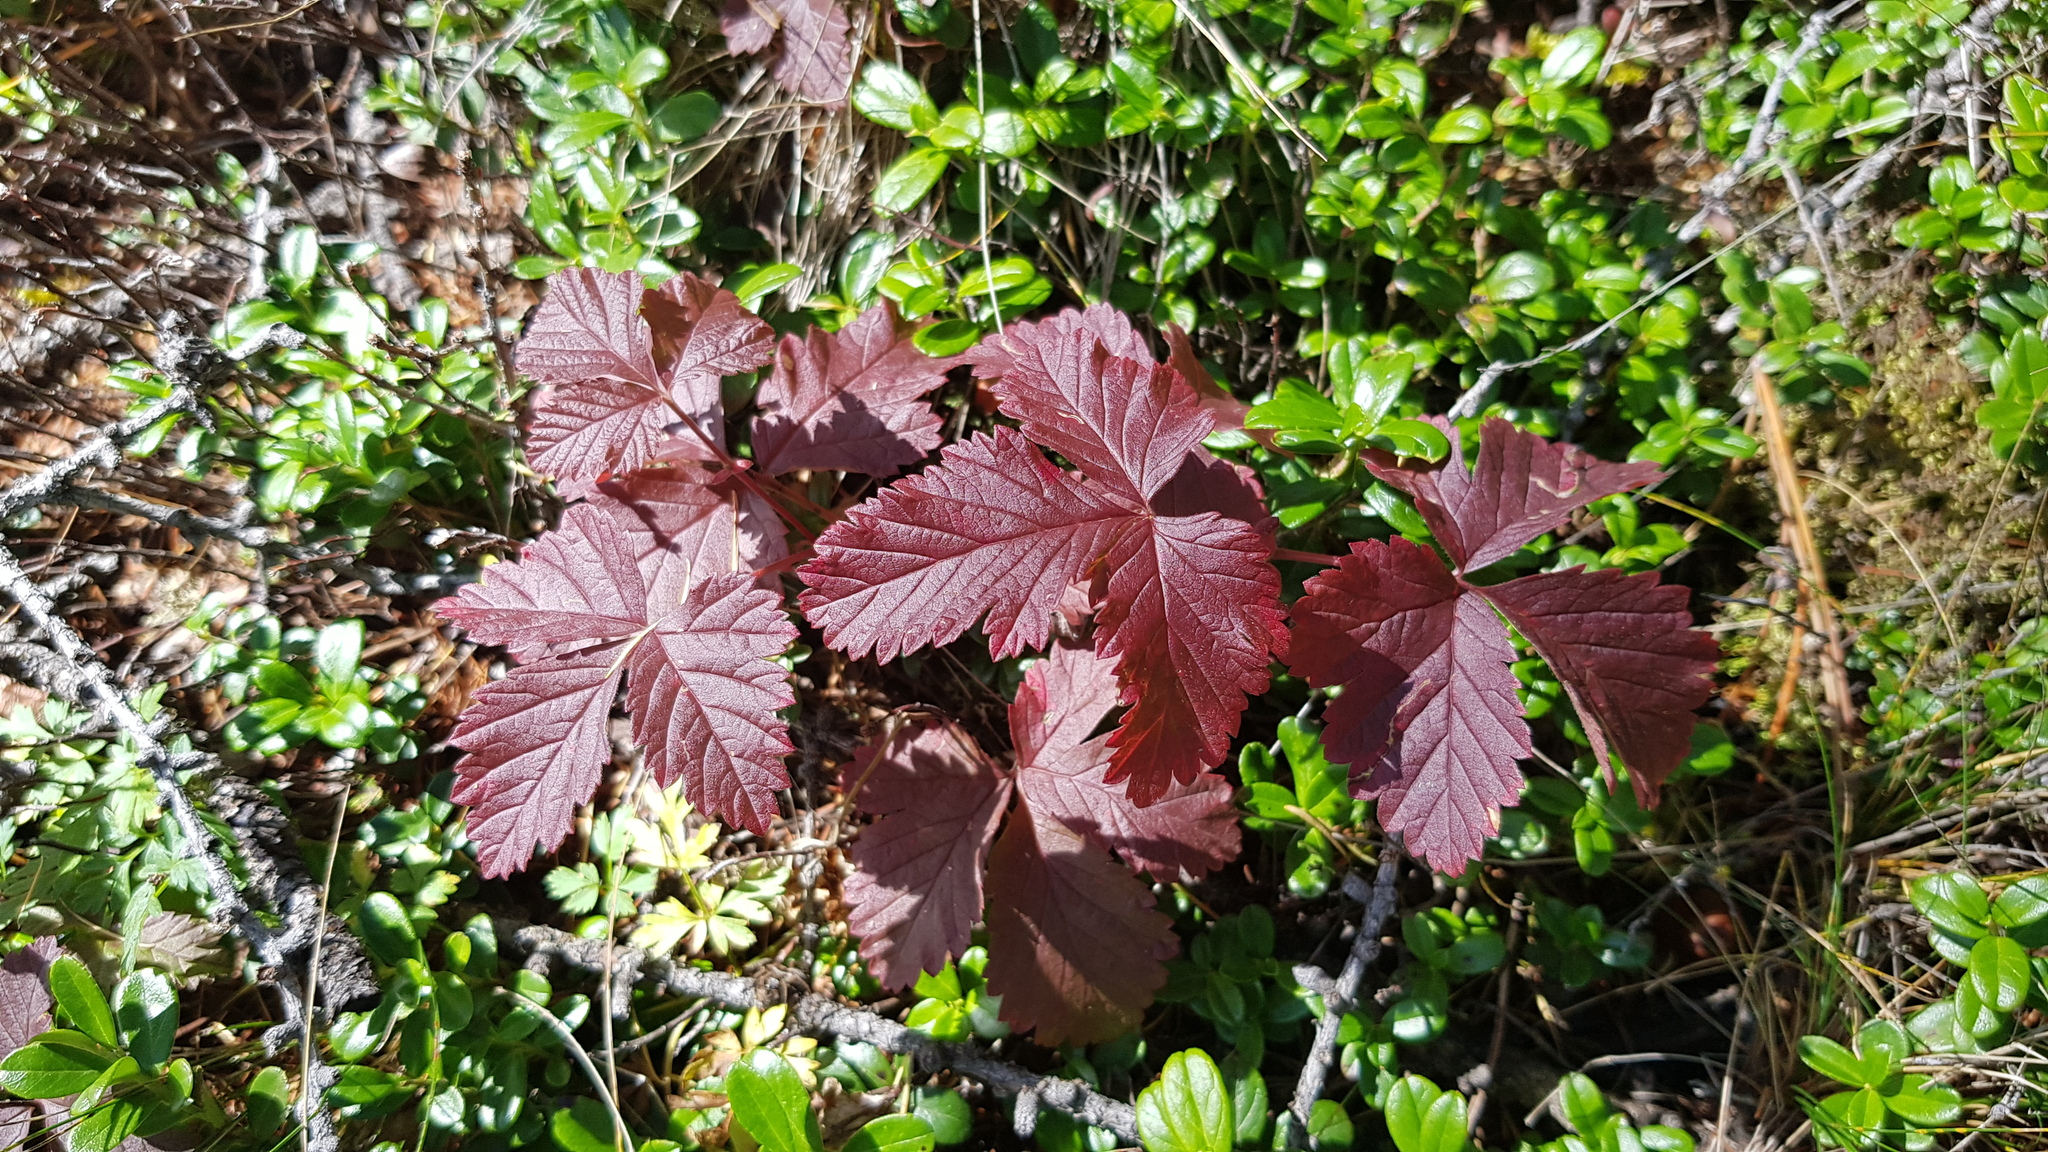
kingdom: Plantae
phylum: Tracheophyta
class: Magnoliopsida
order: Rosales
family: Rosaceae
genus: Rubus
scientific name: Rubus arcticus
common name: Arctic bramble
